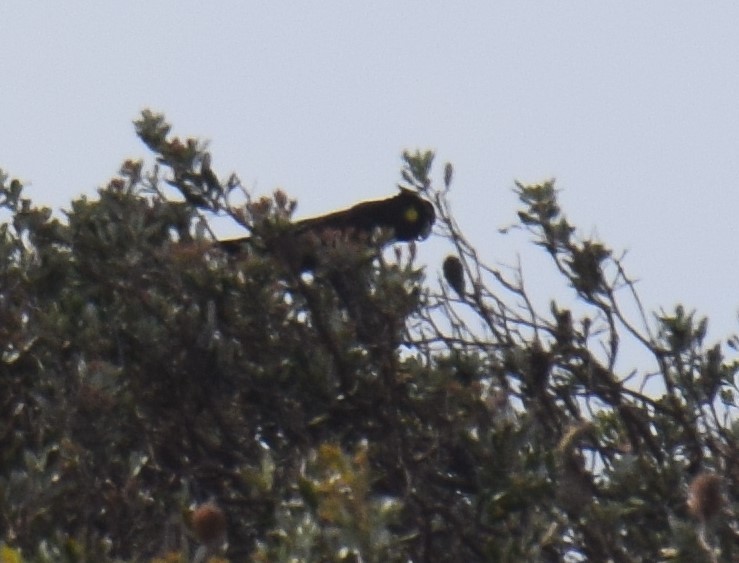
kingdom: Animalia
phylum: Chordata
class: Aves
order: Psittaciformes
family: Cacatuidae
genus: Zanda
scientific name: Zanda funerea
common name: Yellow-tailed black-cockatoo
